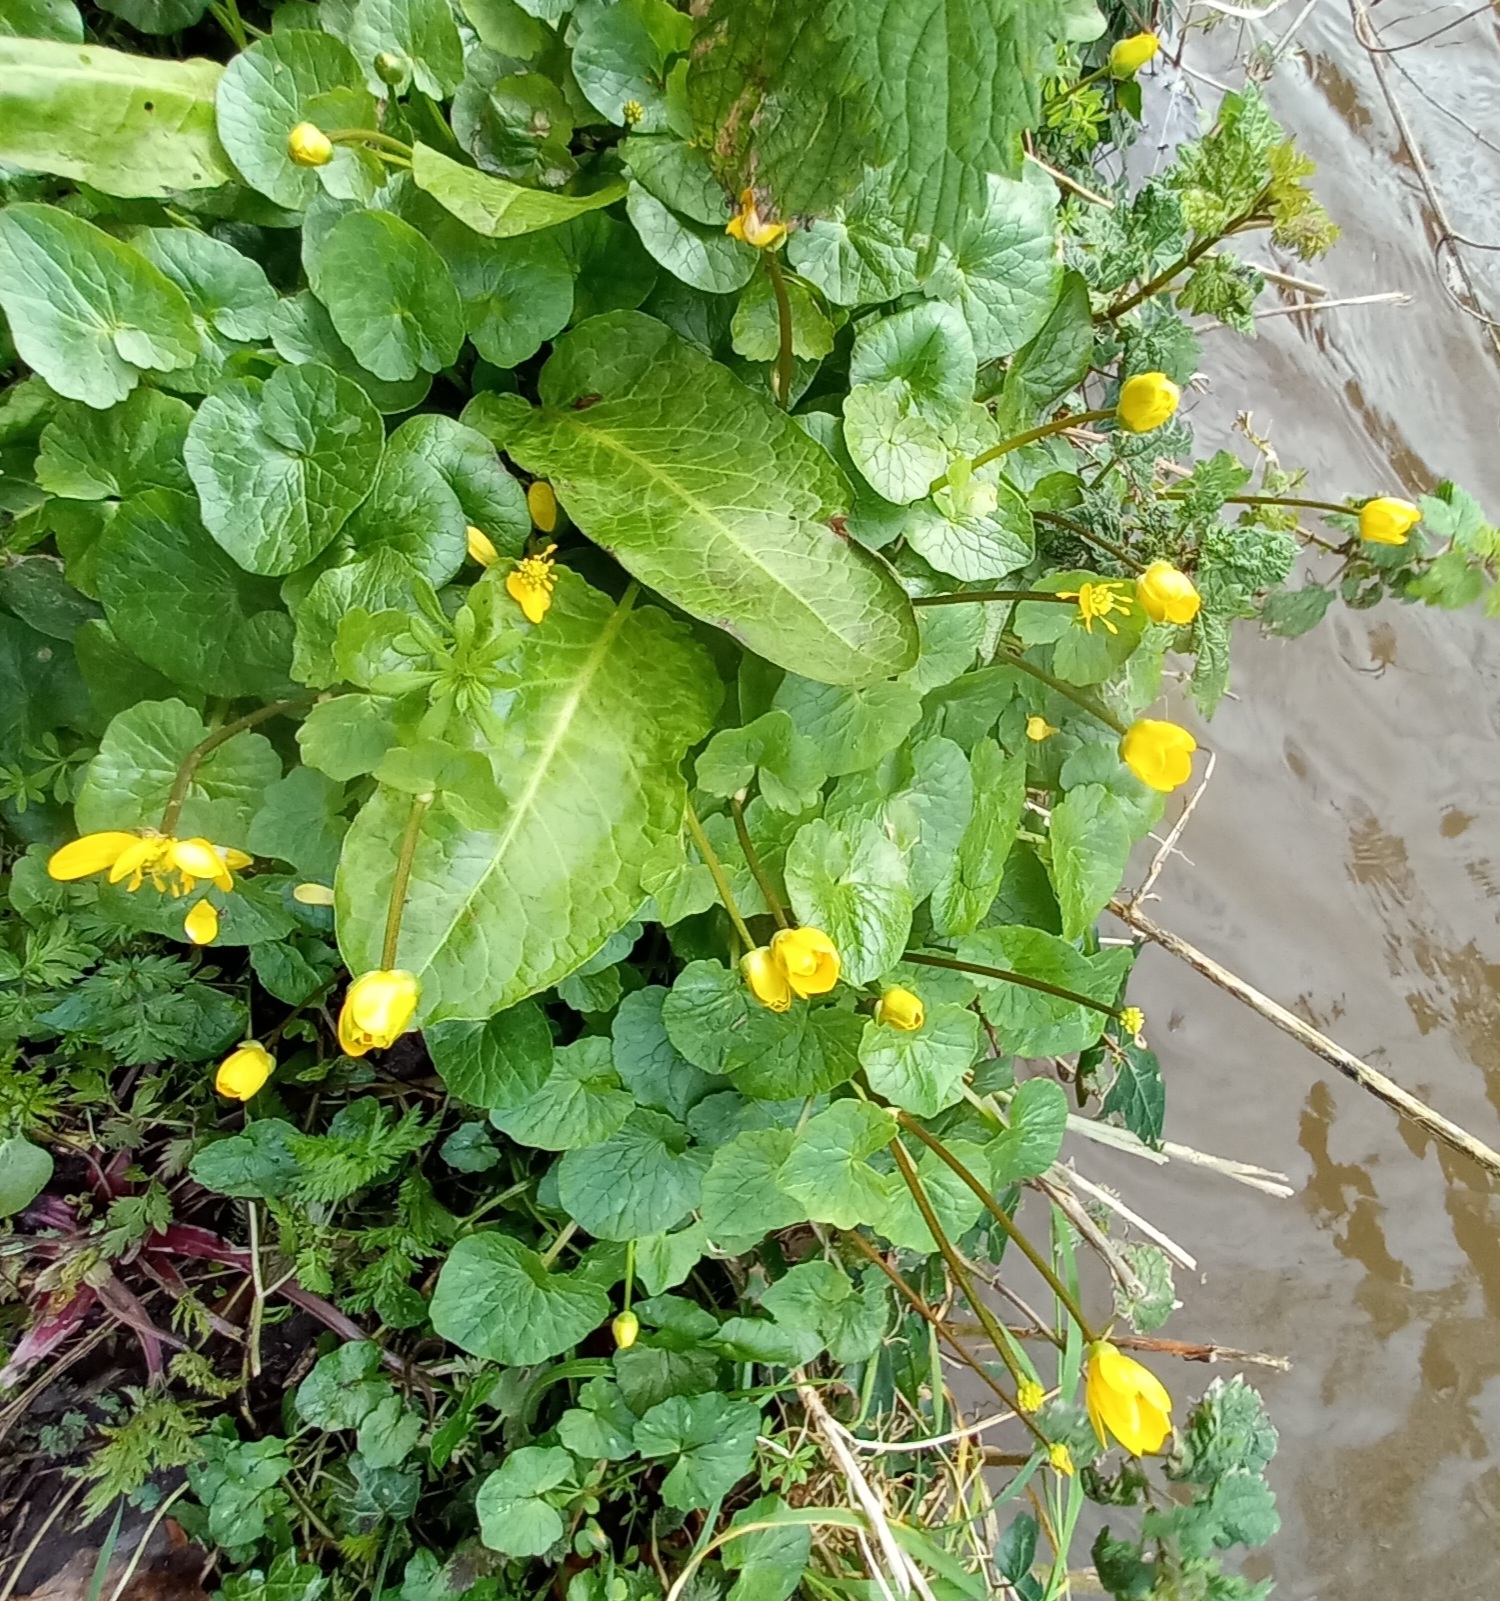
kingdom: Plantae
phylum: Tracheophyta
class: Magnoliopsida
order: Ranunculales
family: Ranunculaceae
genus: Ficaria
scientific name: Ficaria verna
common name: Lesser celandine
